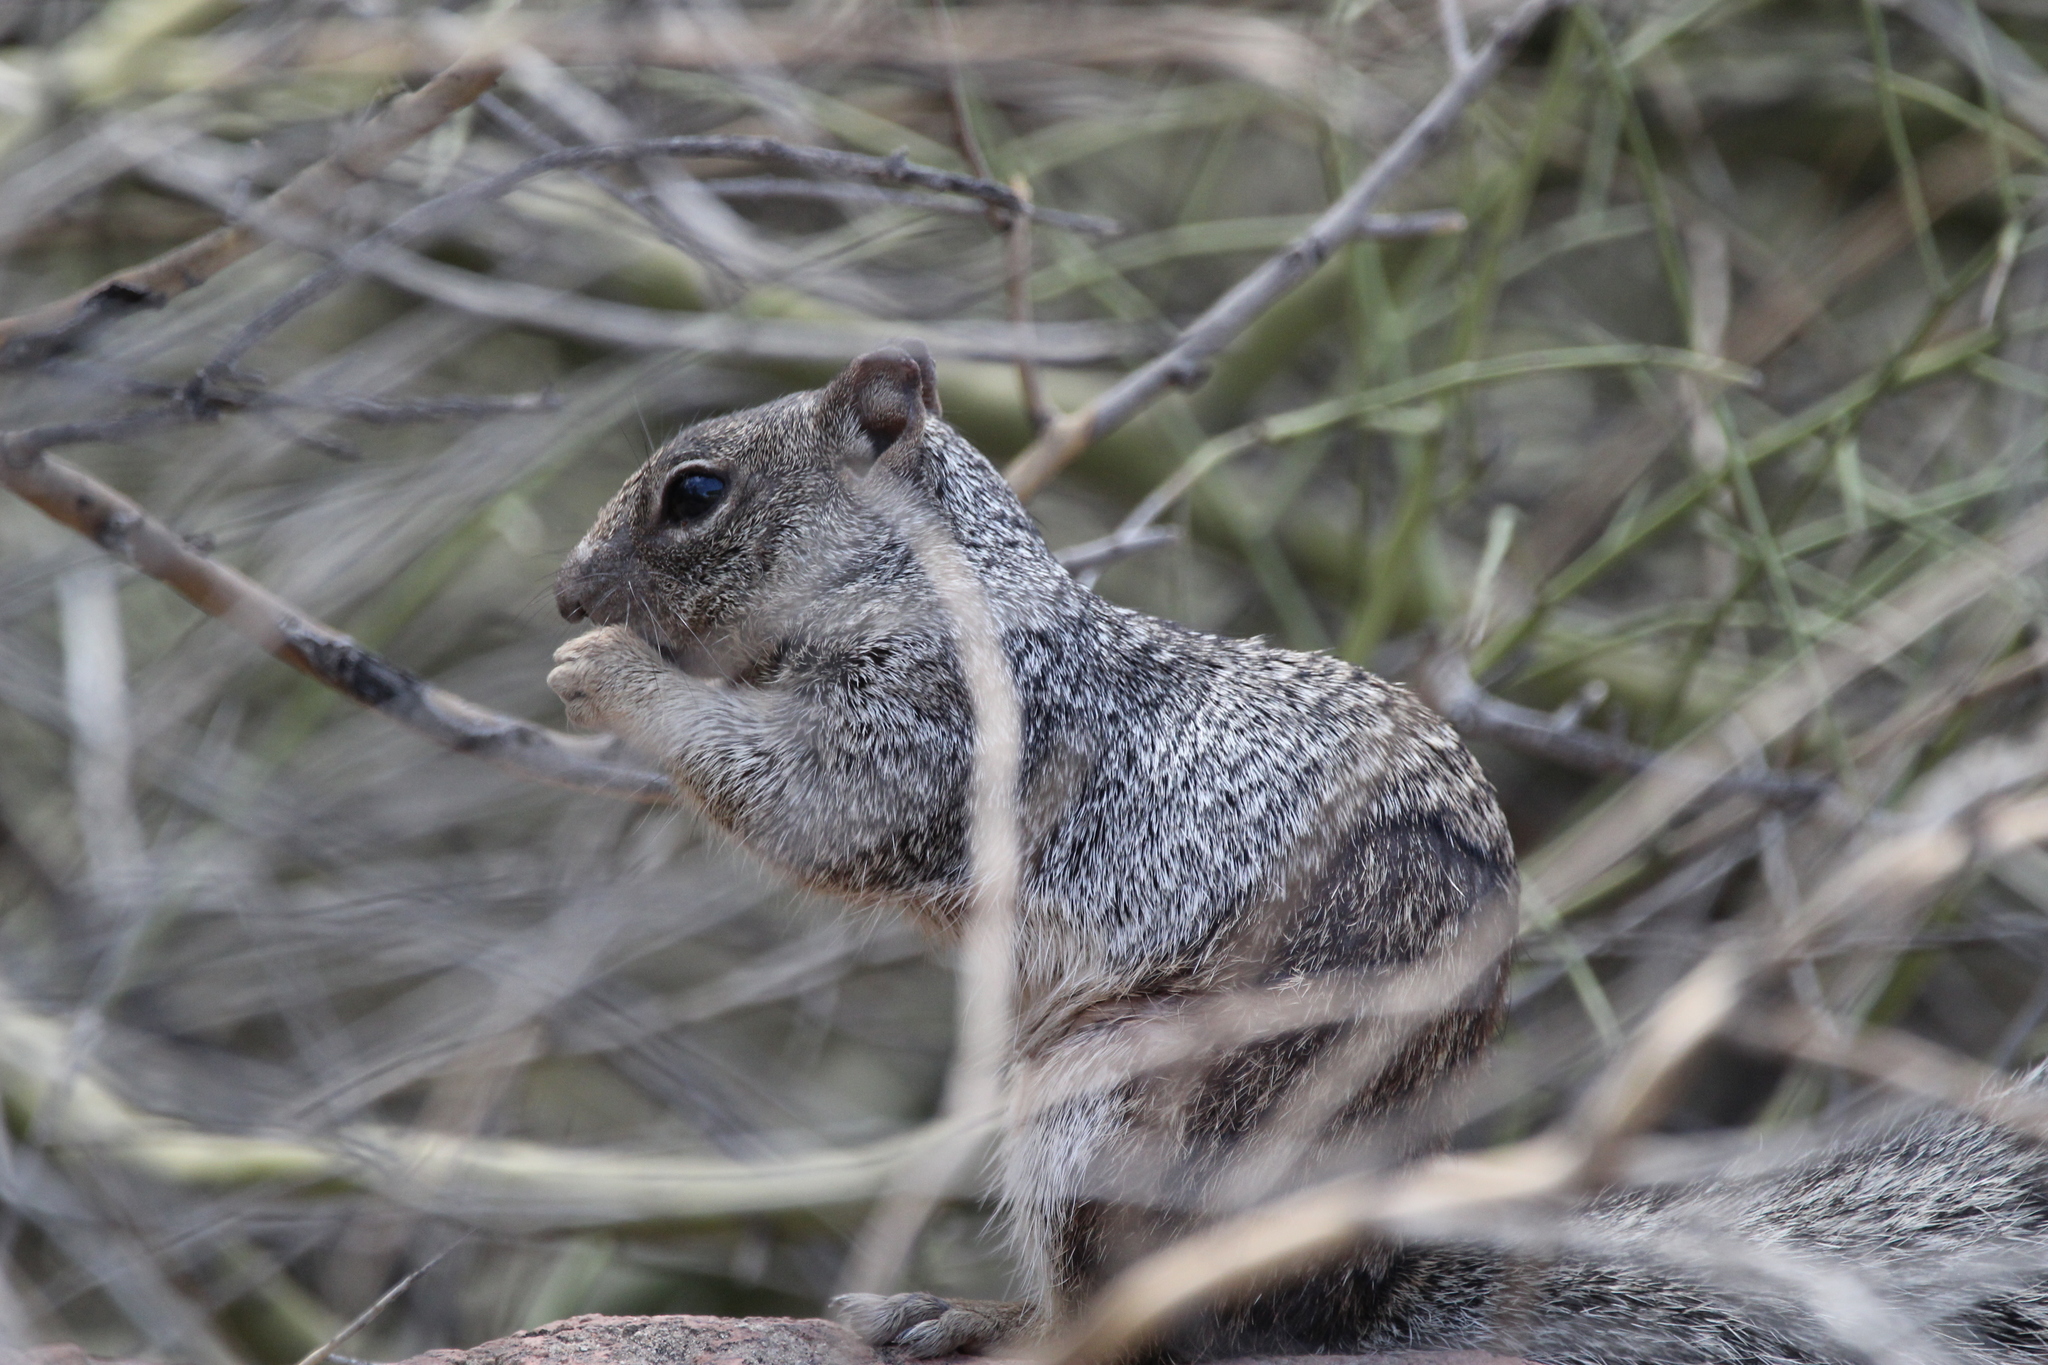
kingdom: Animalia
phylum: Chordata
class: Mammalia
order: Rodentia
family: Sciuridae
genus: Otospermophilus
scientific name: Otospermophilus variegatus
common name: Rock squirrel
